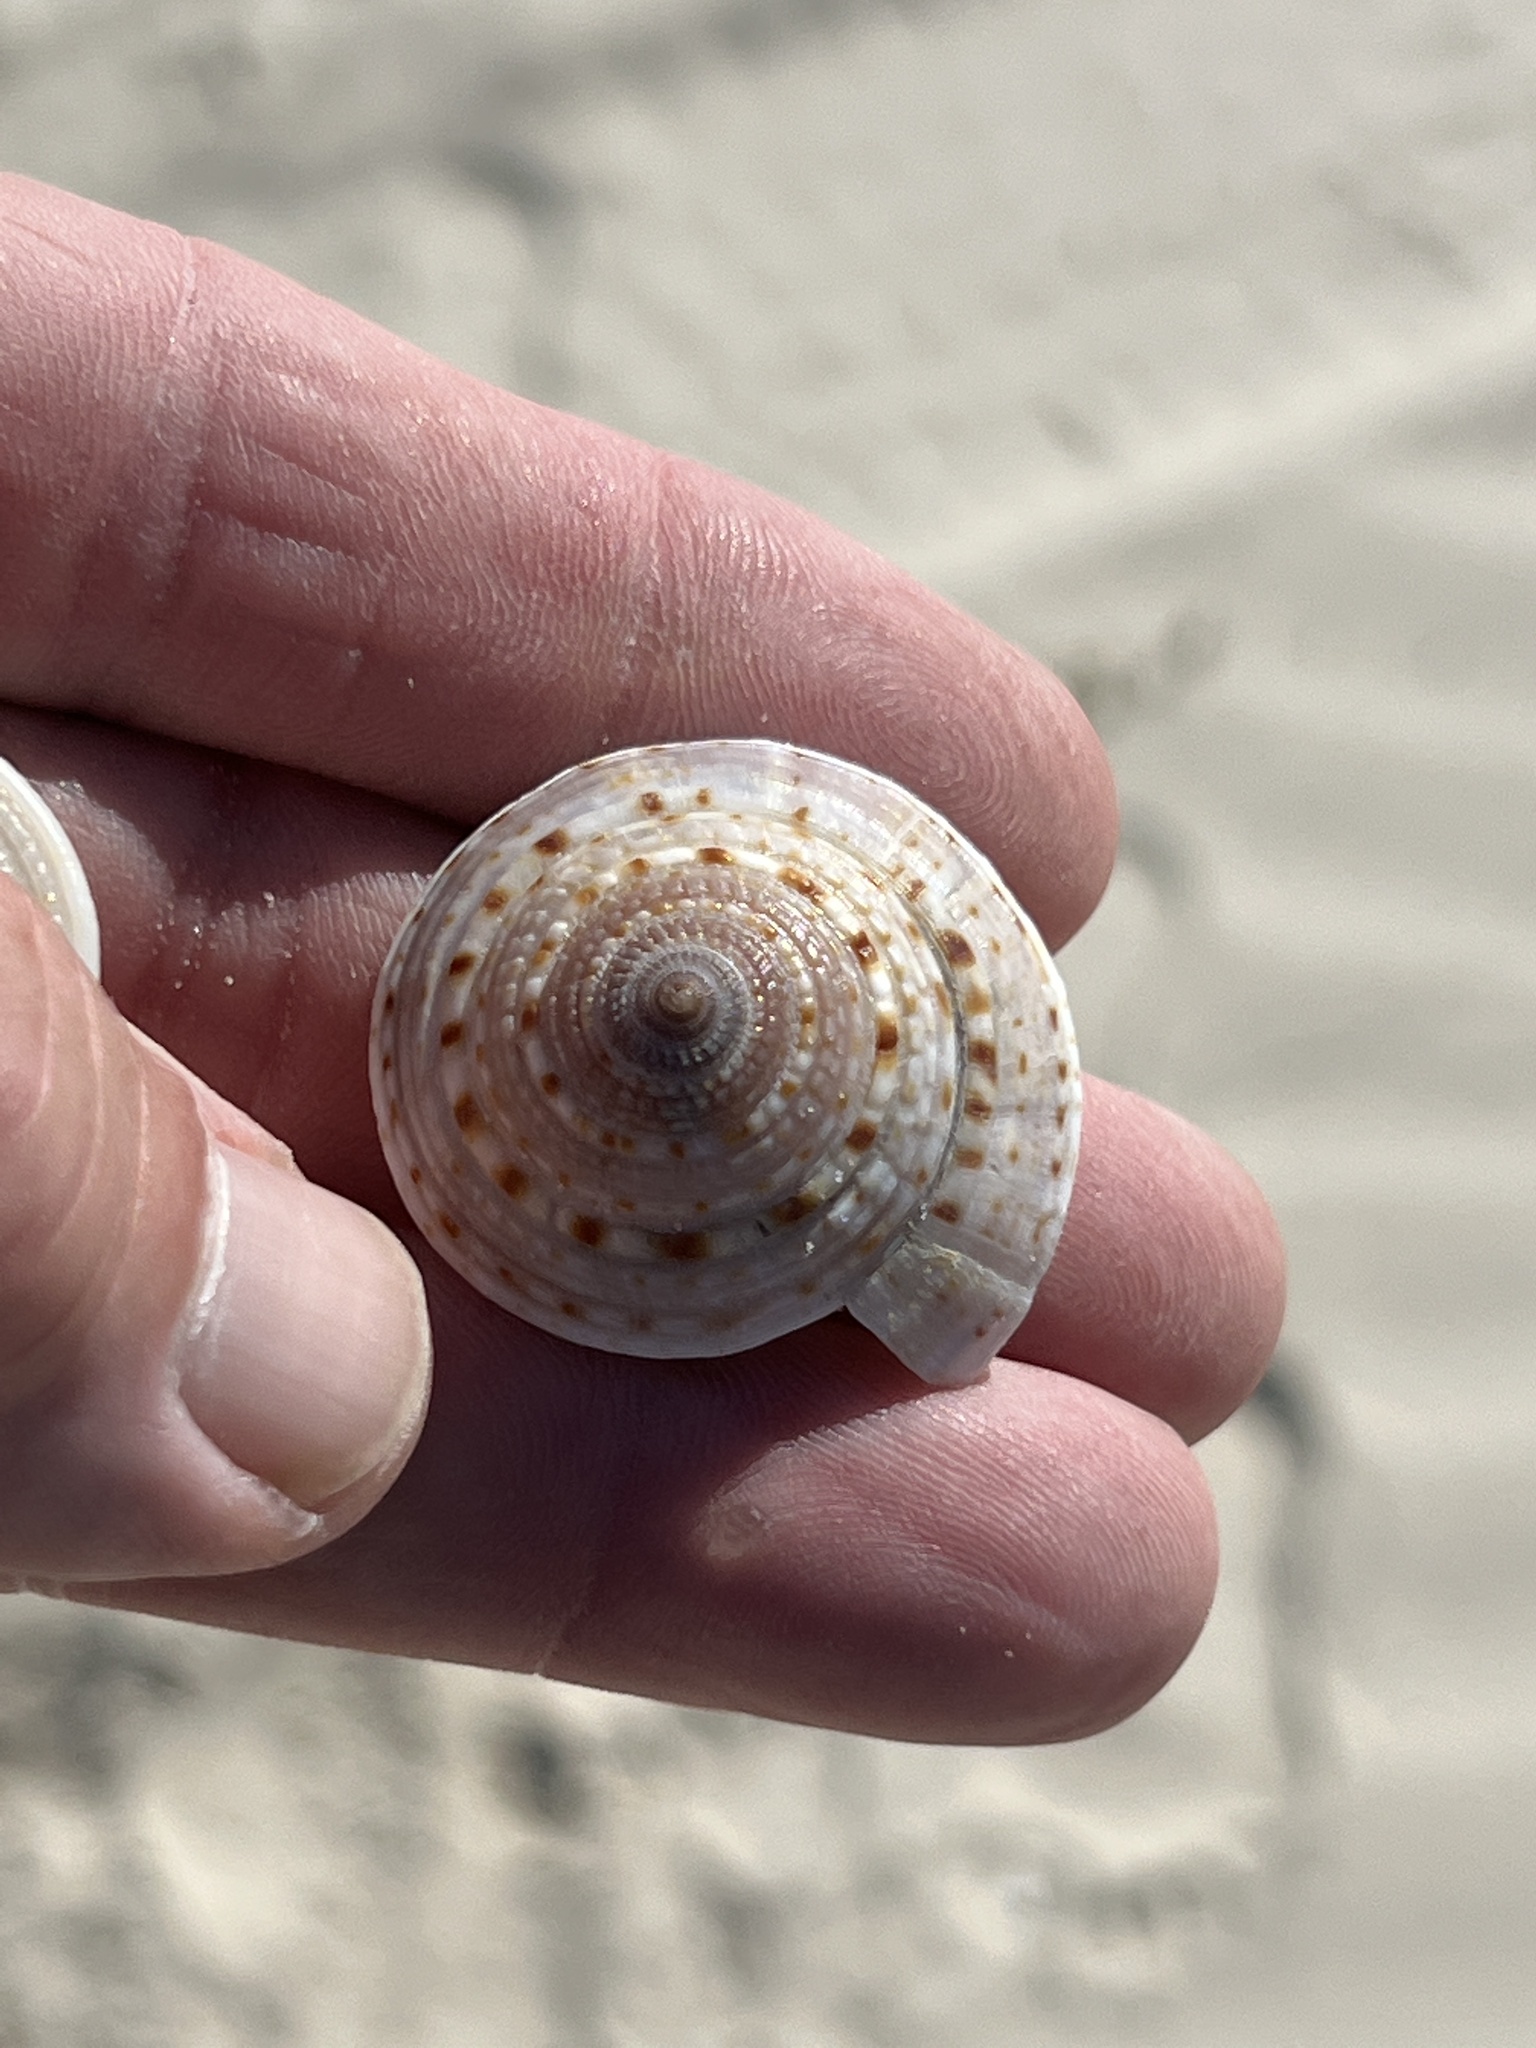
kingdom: Animalia
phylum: Mollusca
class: Gastropoda
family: Architectonicidae
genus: Architectonica
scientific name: Architectonica nobilis
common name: Common sundial
